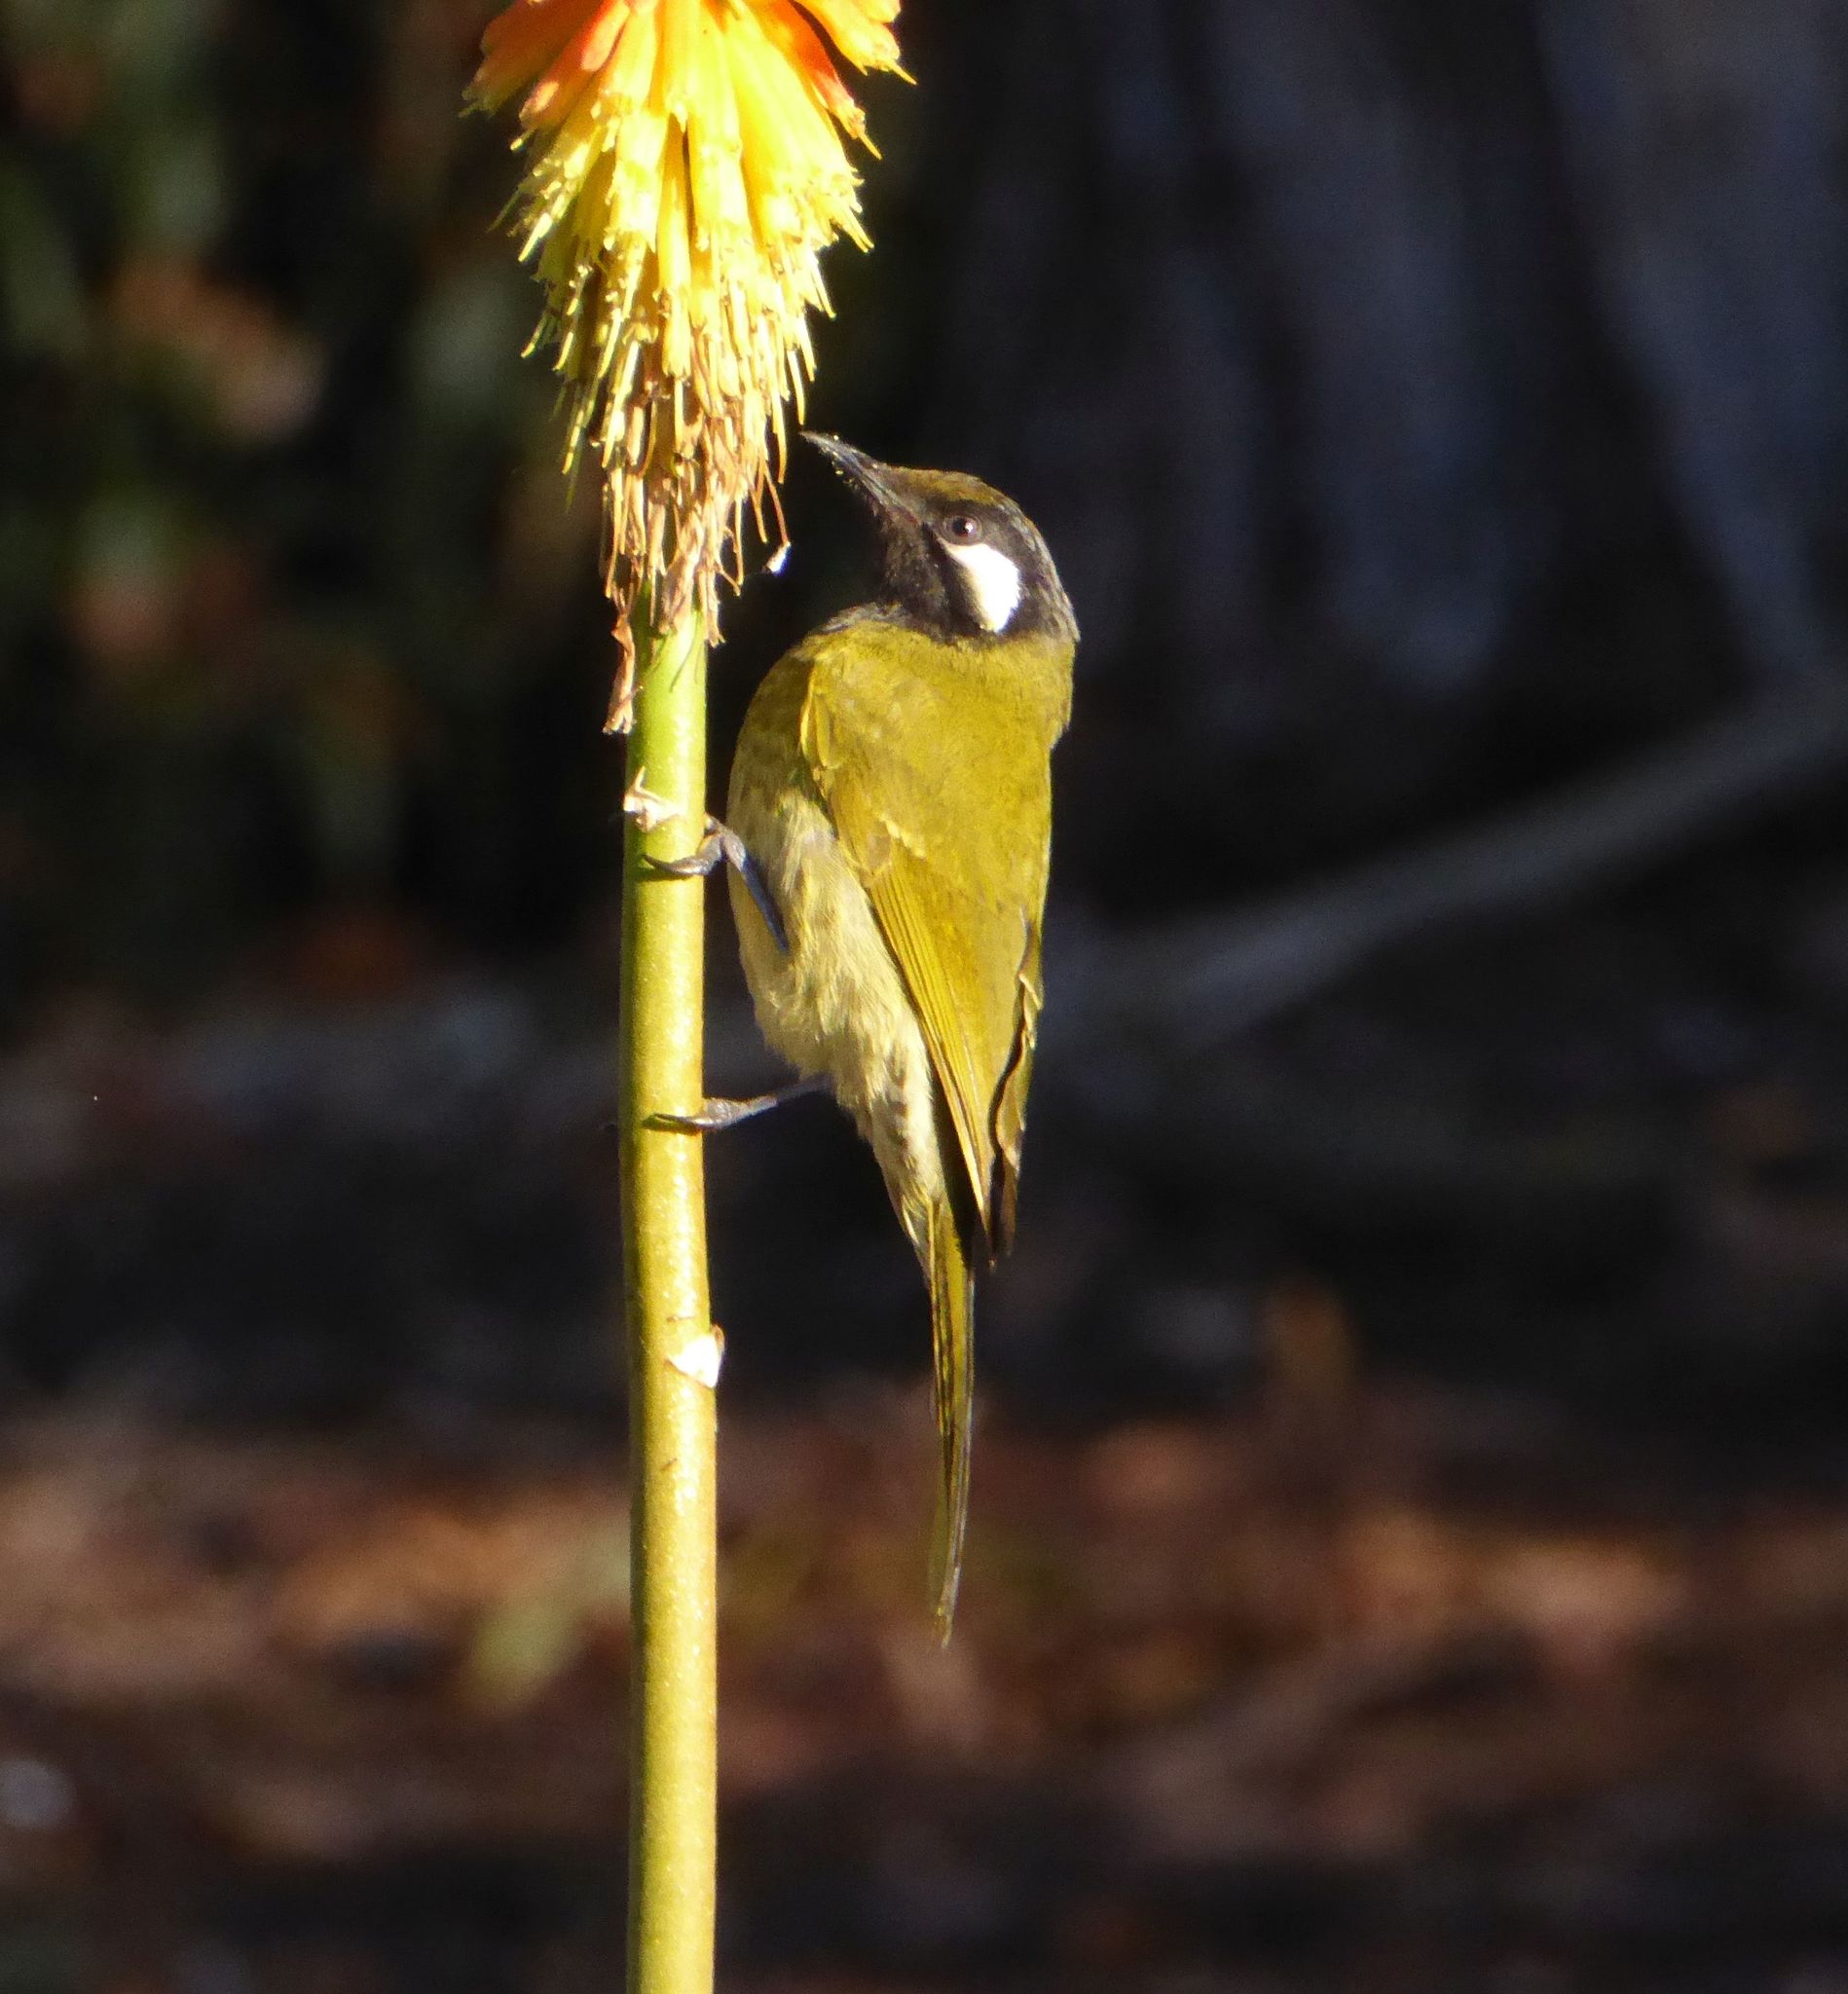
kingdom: Animalia
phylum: Chordata
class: Aves
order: Passeriformes
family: Meliphagidae
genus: Nesoptilotis
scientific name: Nesoptilotis leucotis
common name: White-eared honeyeater
